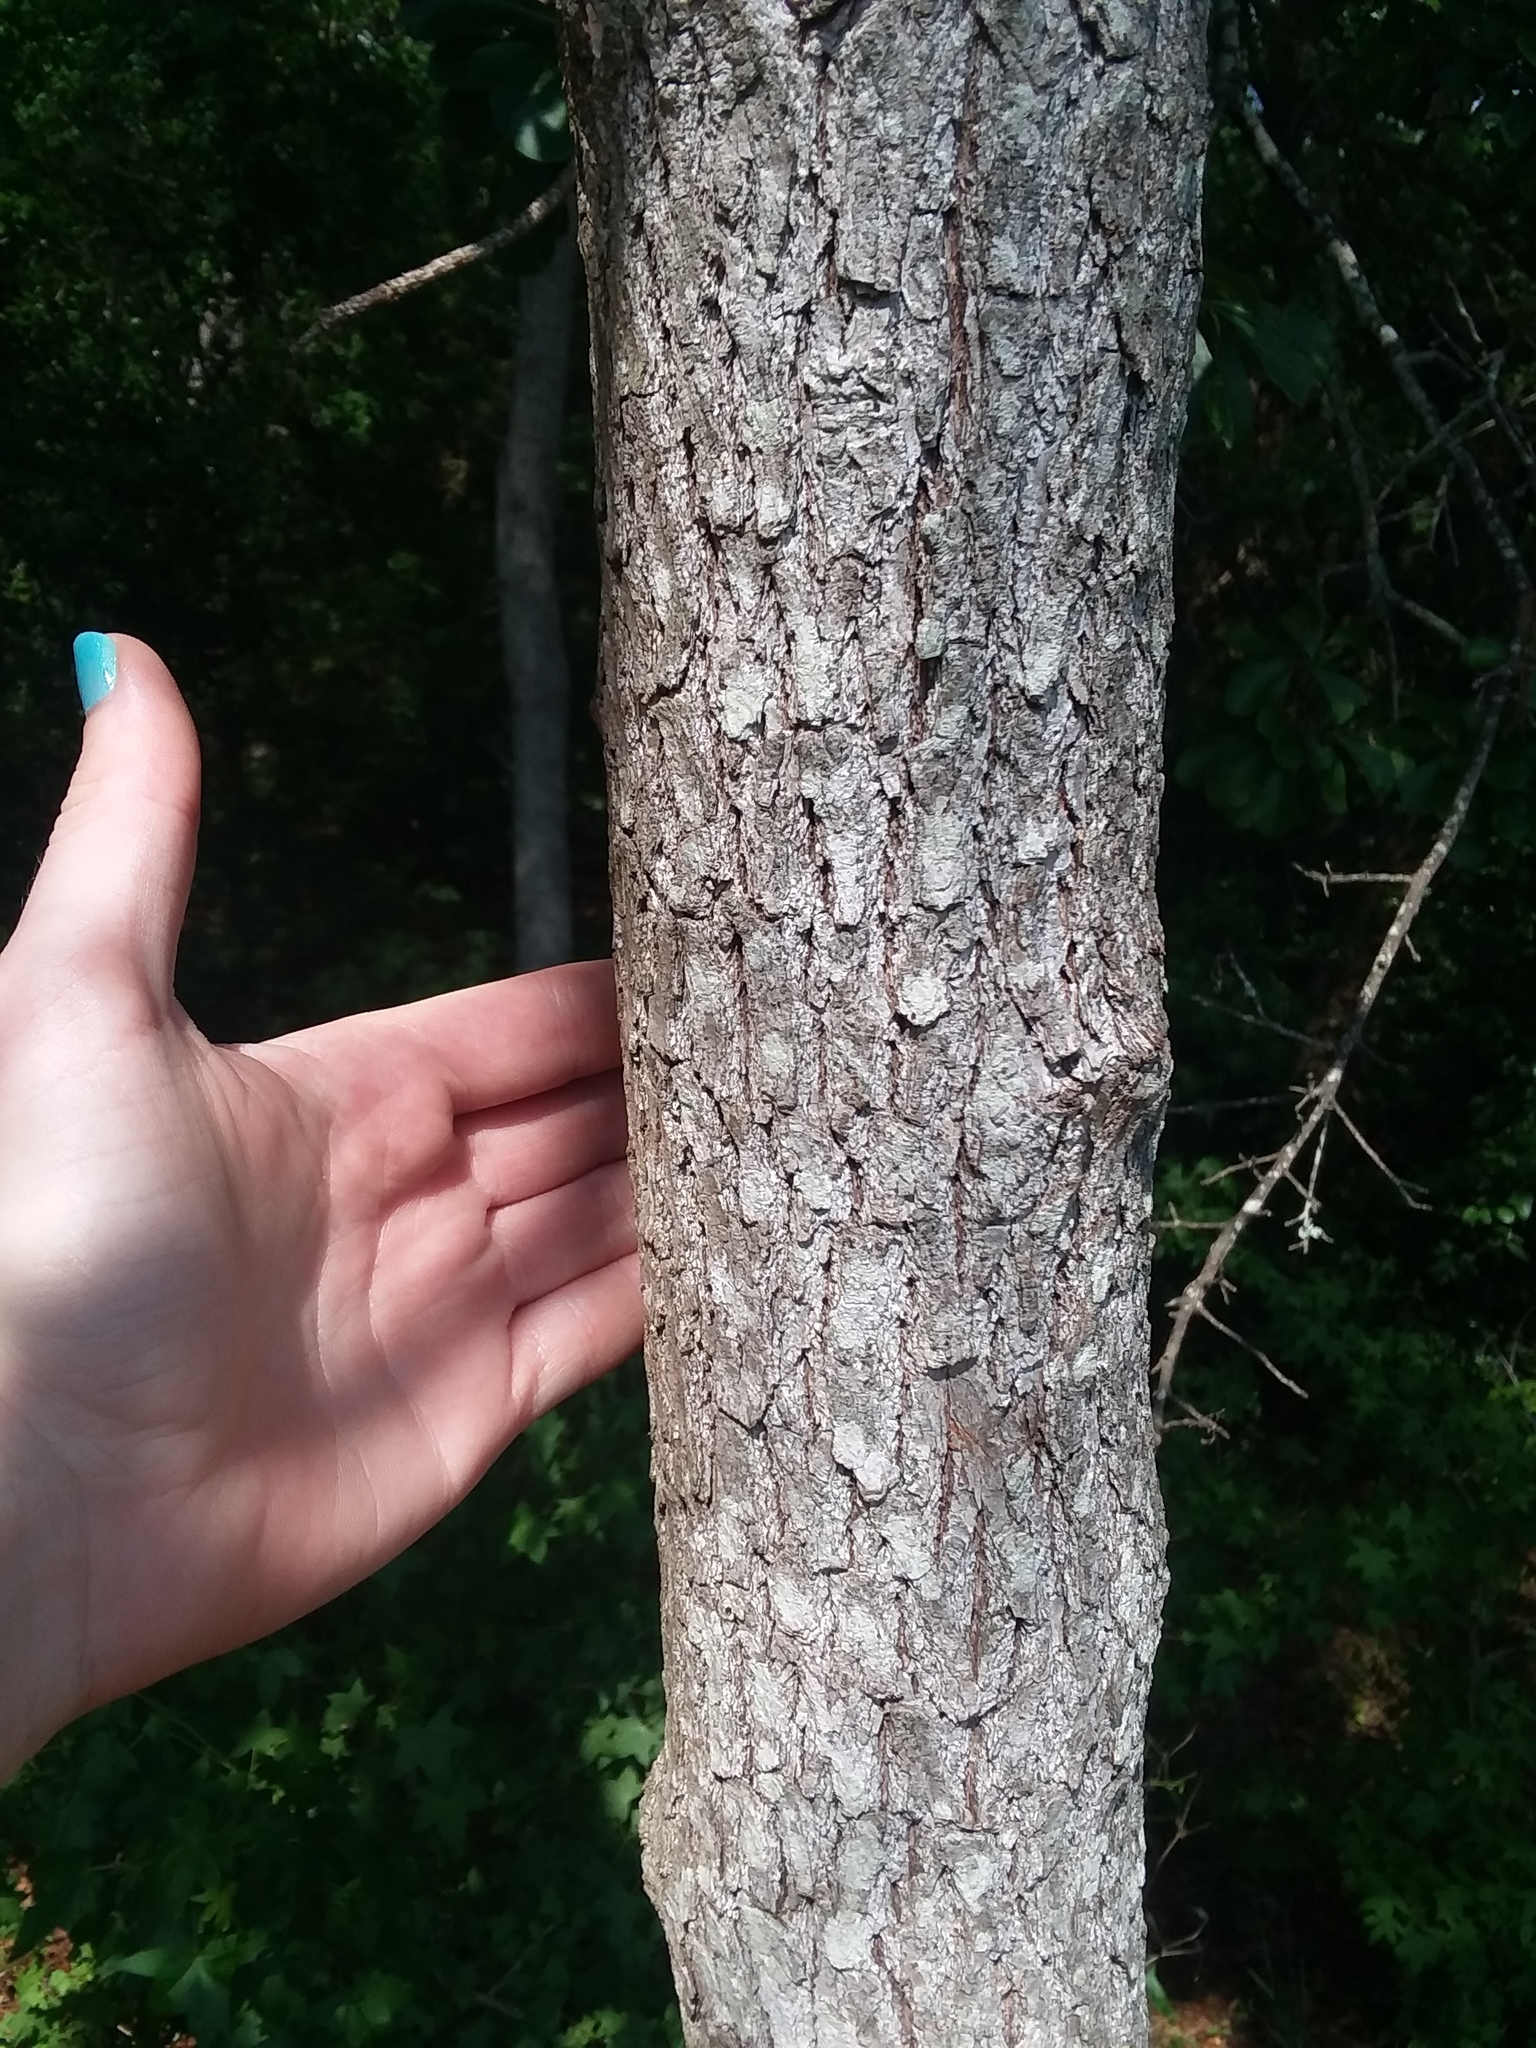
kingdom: Plantae
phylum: Tracheophyta
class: Magnoliopsida
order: Laurales
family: Lauraceae
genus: Sassafras
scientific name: Sassafras albidum
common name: Sassafras
